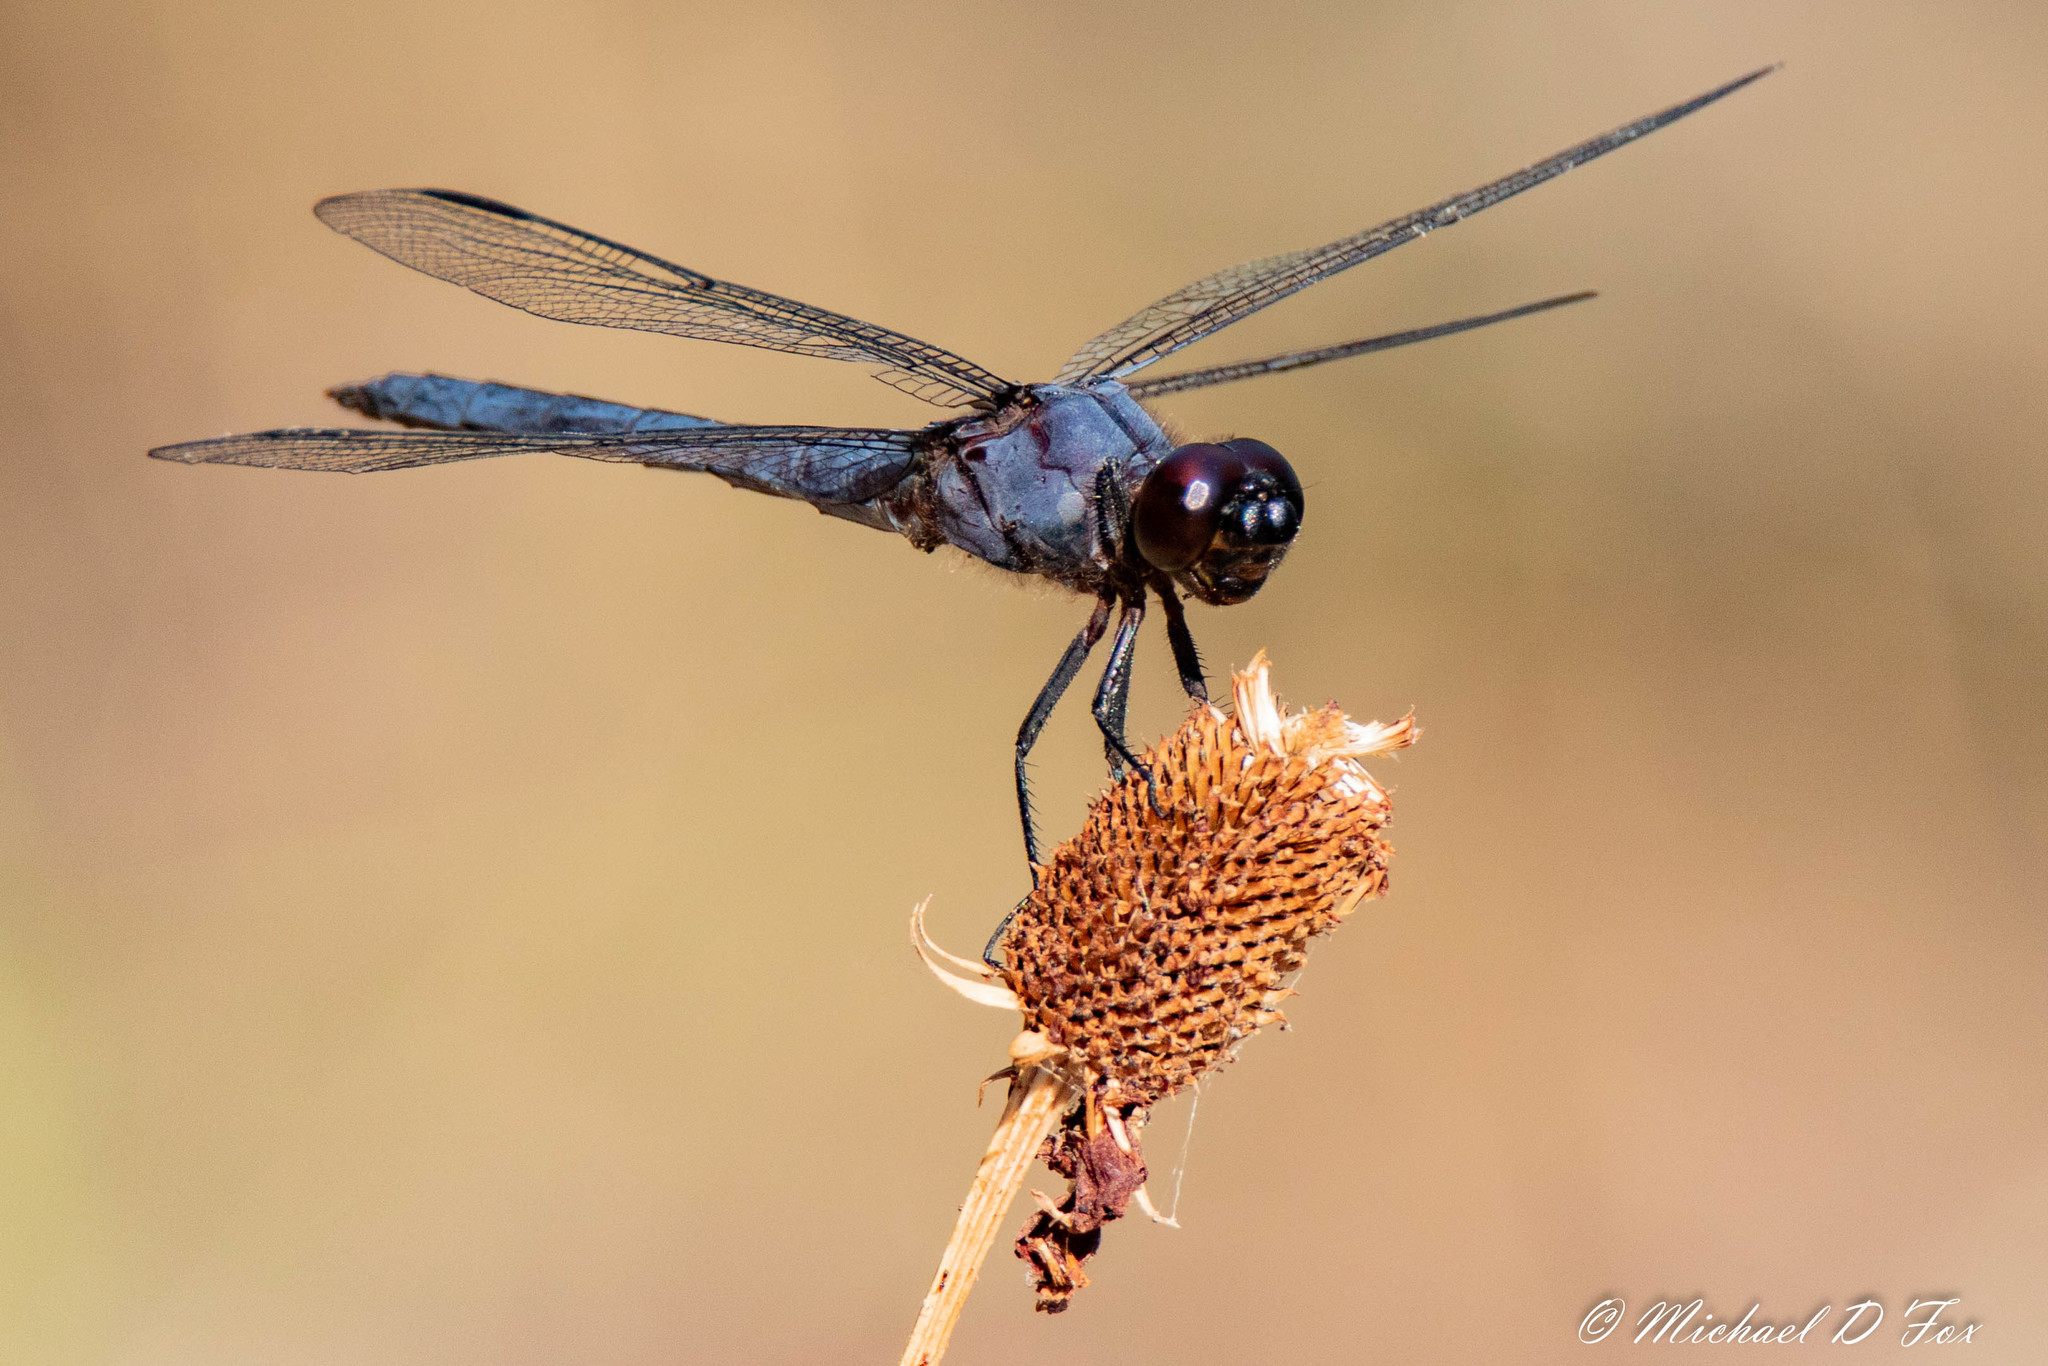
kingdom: Animalia
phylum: Arthropoda
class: Insecta
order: Odonata
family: Libellulidae
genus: Libellula
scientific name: Libellula incesta
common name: Slaty skimmer
